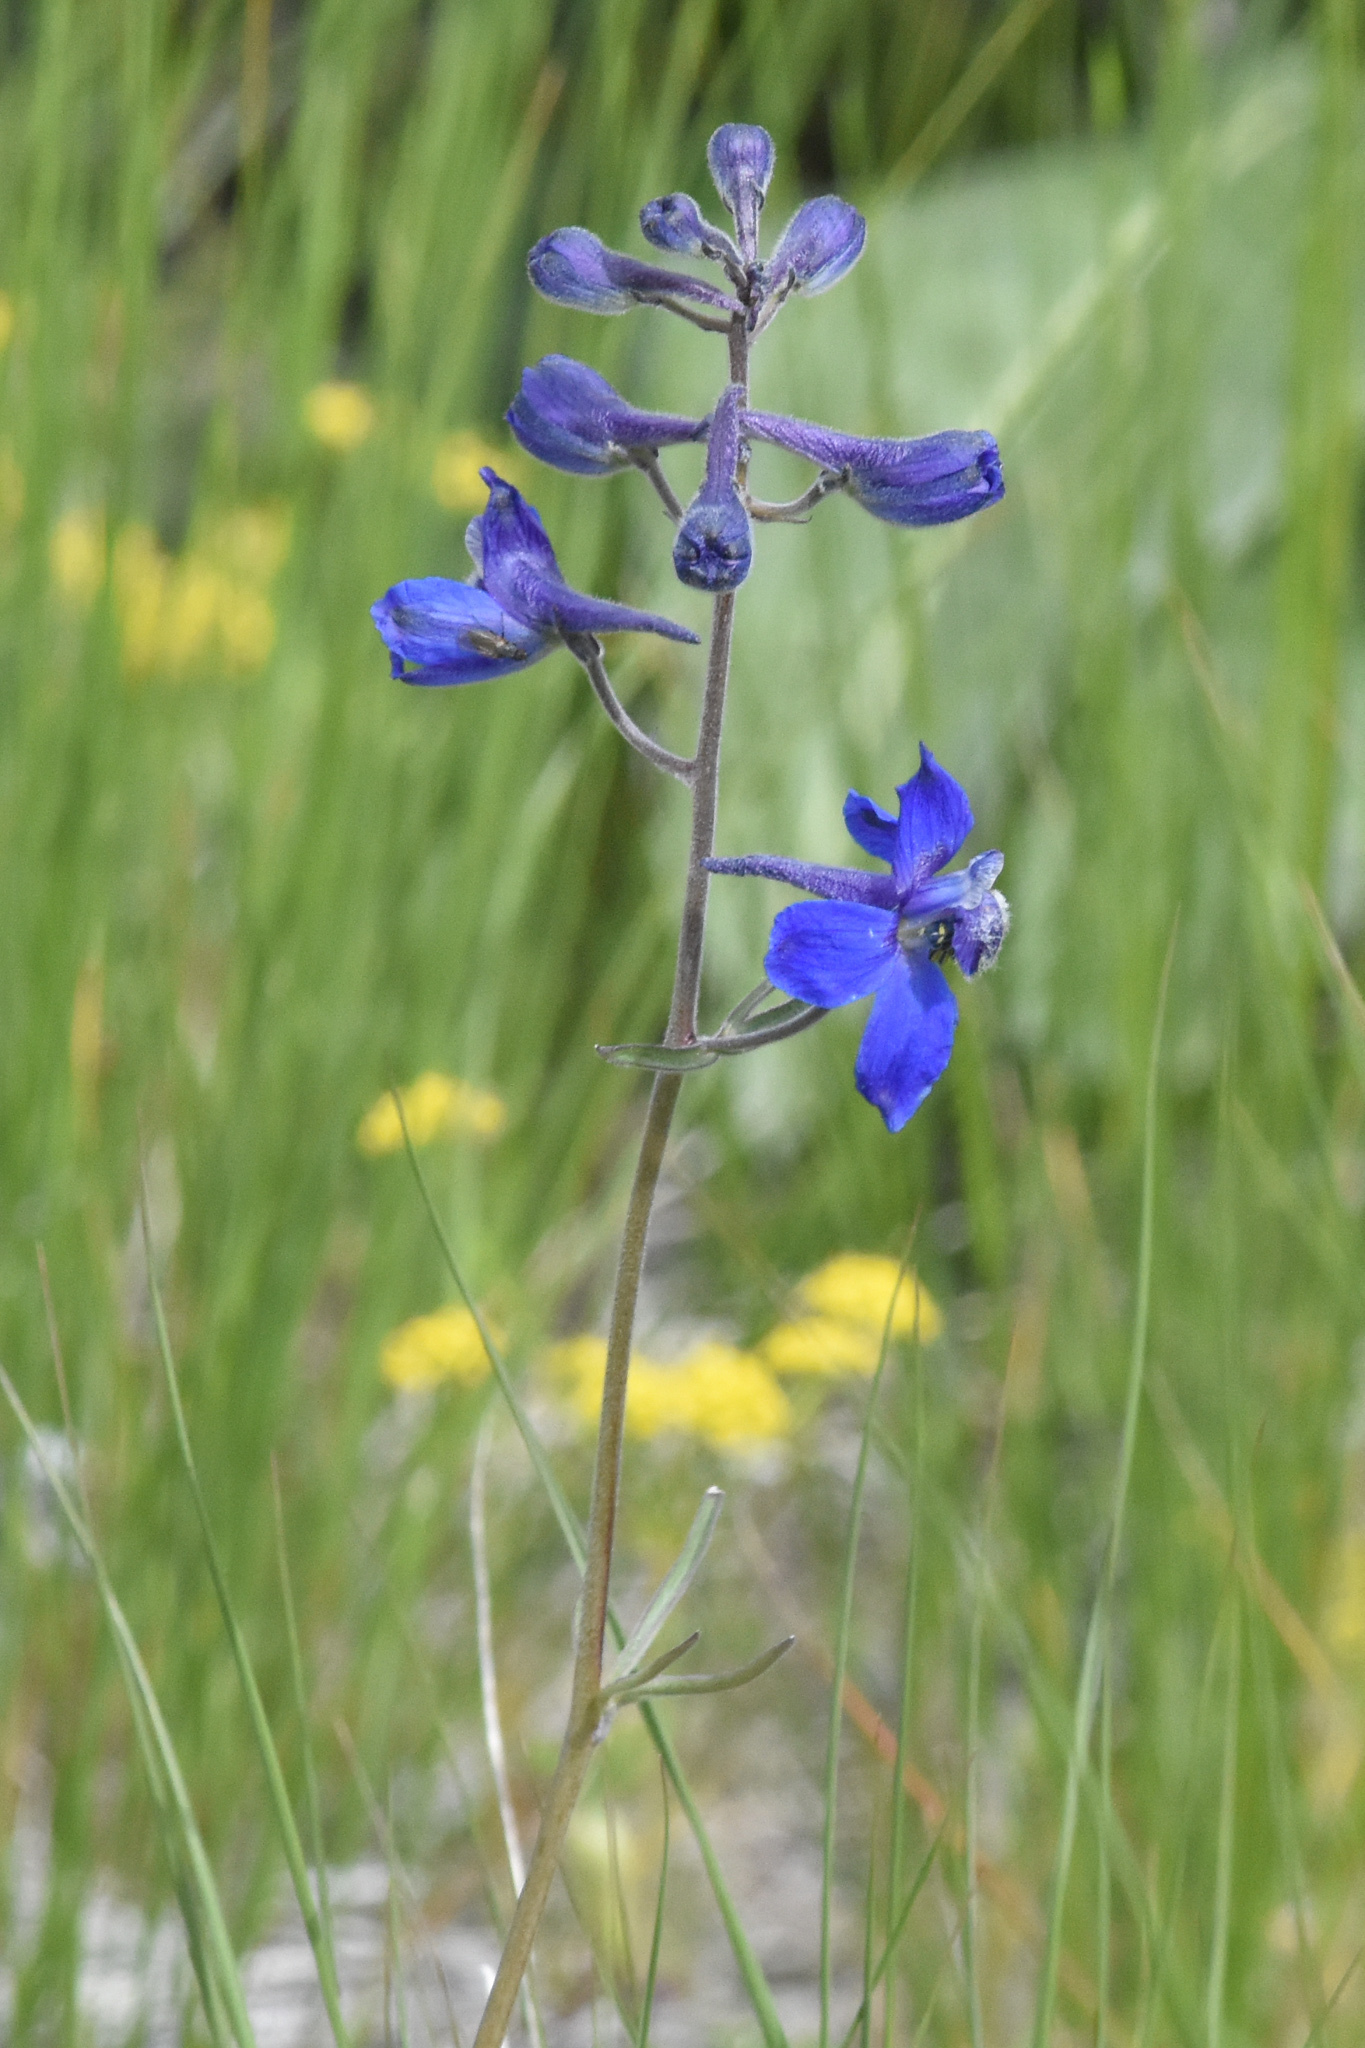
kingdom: Plantae
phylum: Tracheophyta
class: Magnoliopsida
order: Ranunculales
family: Ranunculaceae
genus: Delphinium
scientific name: Delphinium nuttallianum
